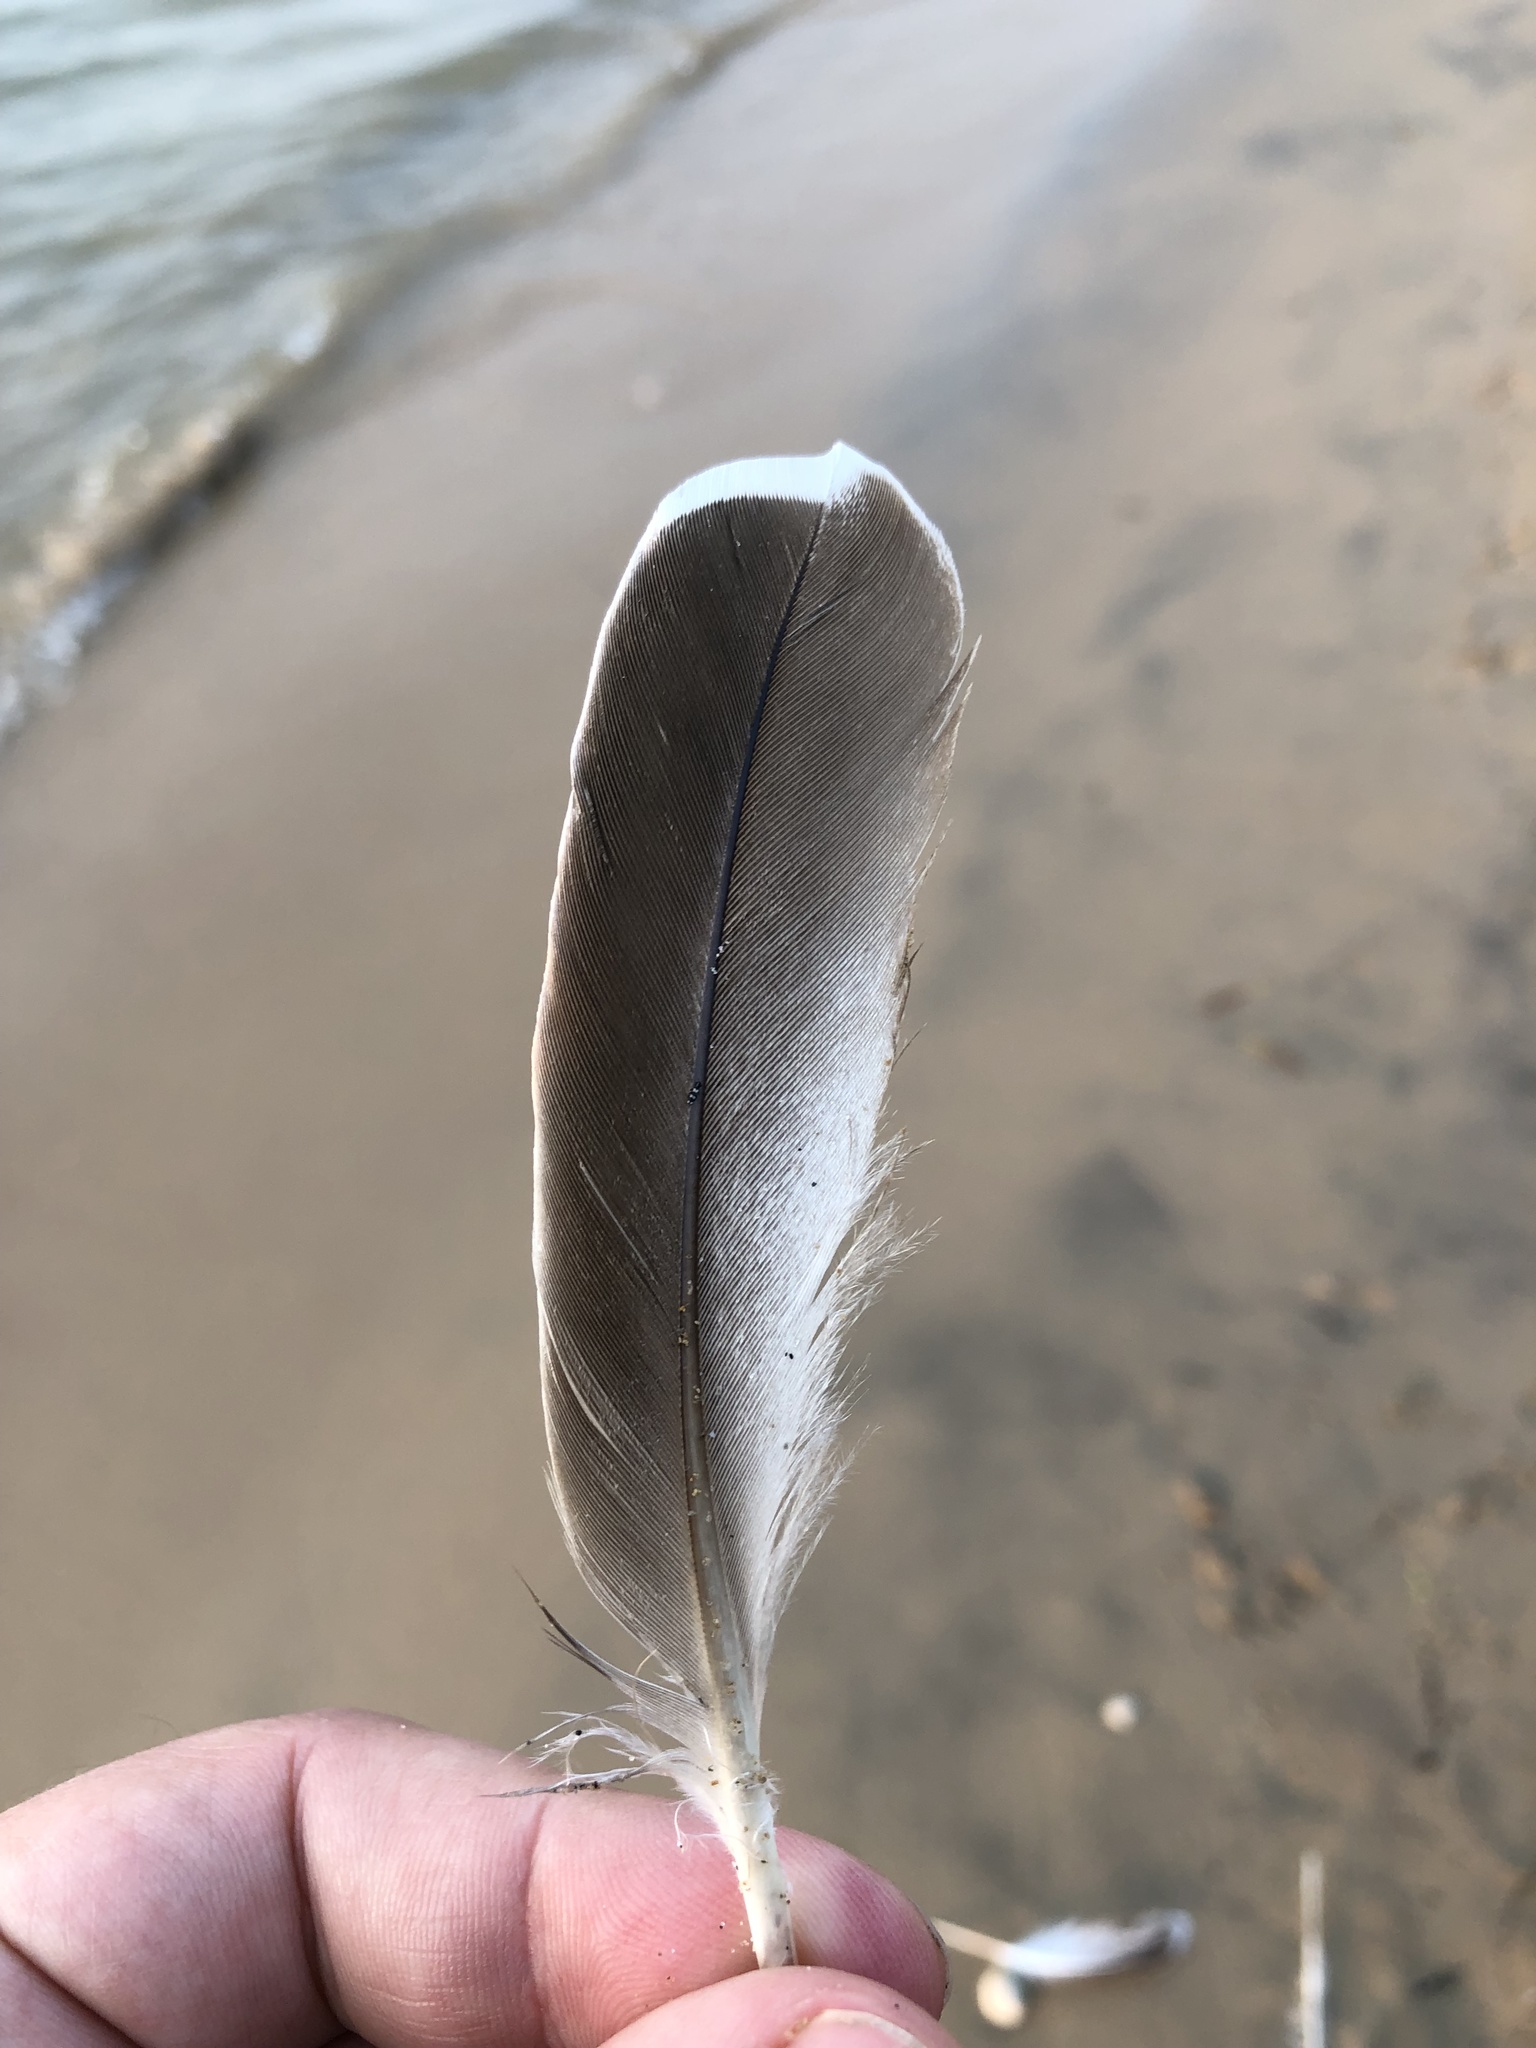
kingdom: Animalia
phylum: Chordata
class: Aves
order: Anseriformes
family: Anatidae
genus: Anas
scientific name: Anas platyrhynchos
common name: Mallard
